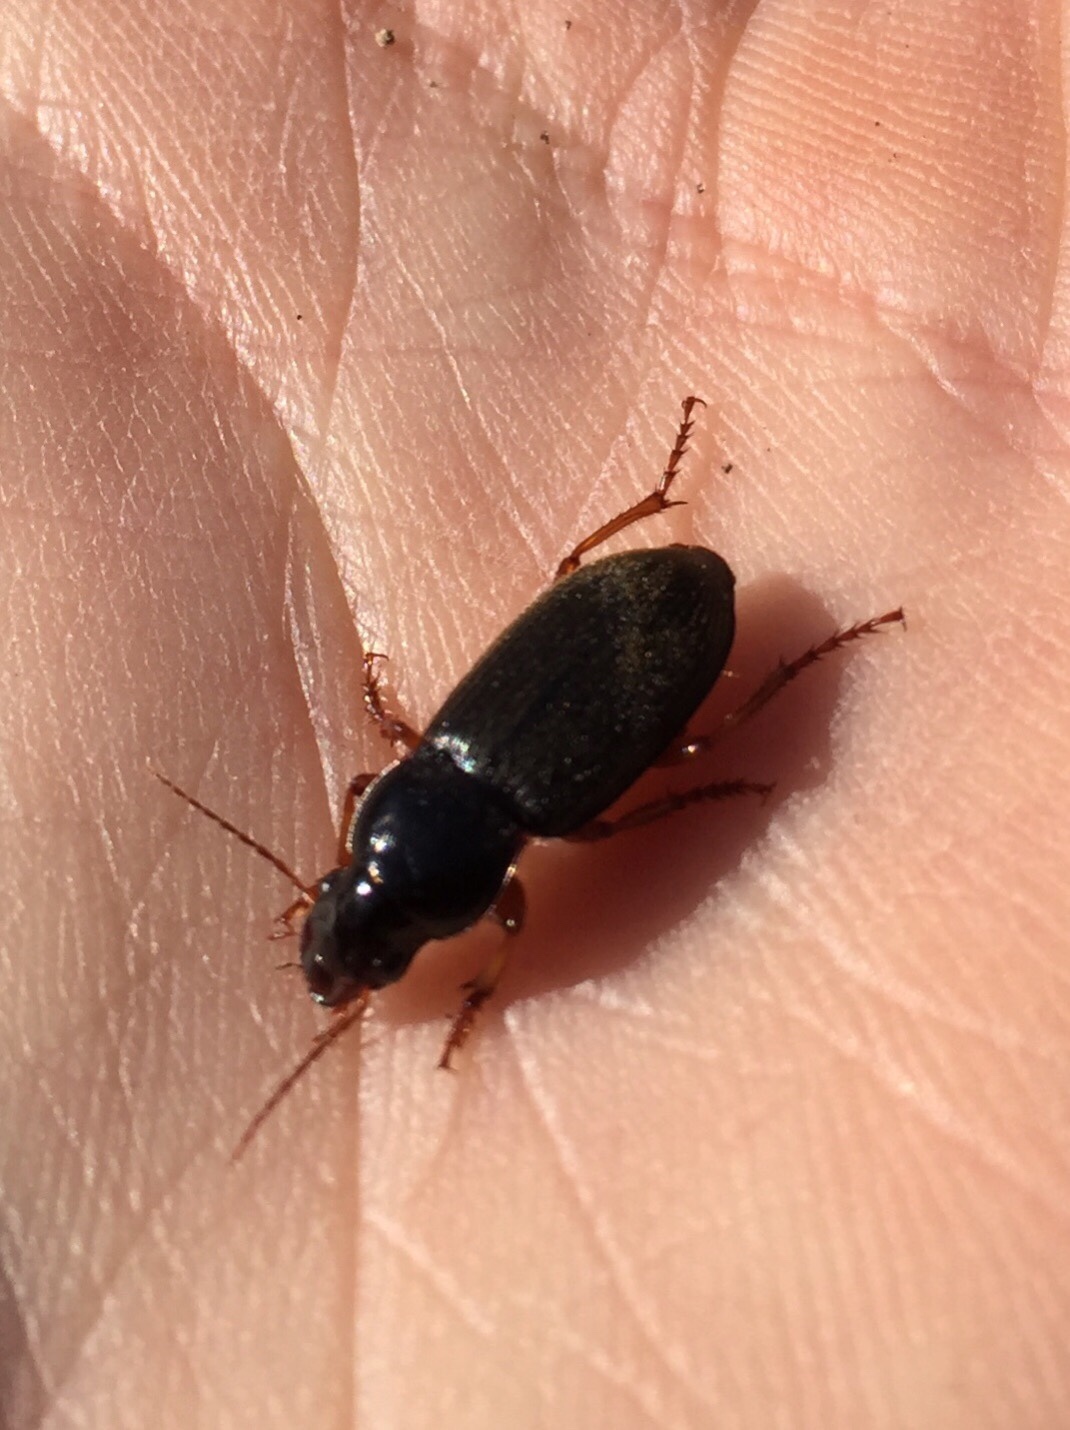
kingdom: Animalia
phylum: Arthropoda
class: Insecta
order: Coleoptera
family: Carabidae
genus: Harpalus
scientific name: Harpalus rufipes
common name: Strawberry harp ground beetle
